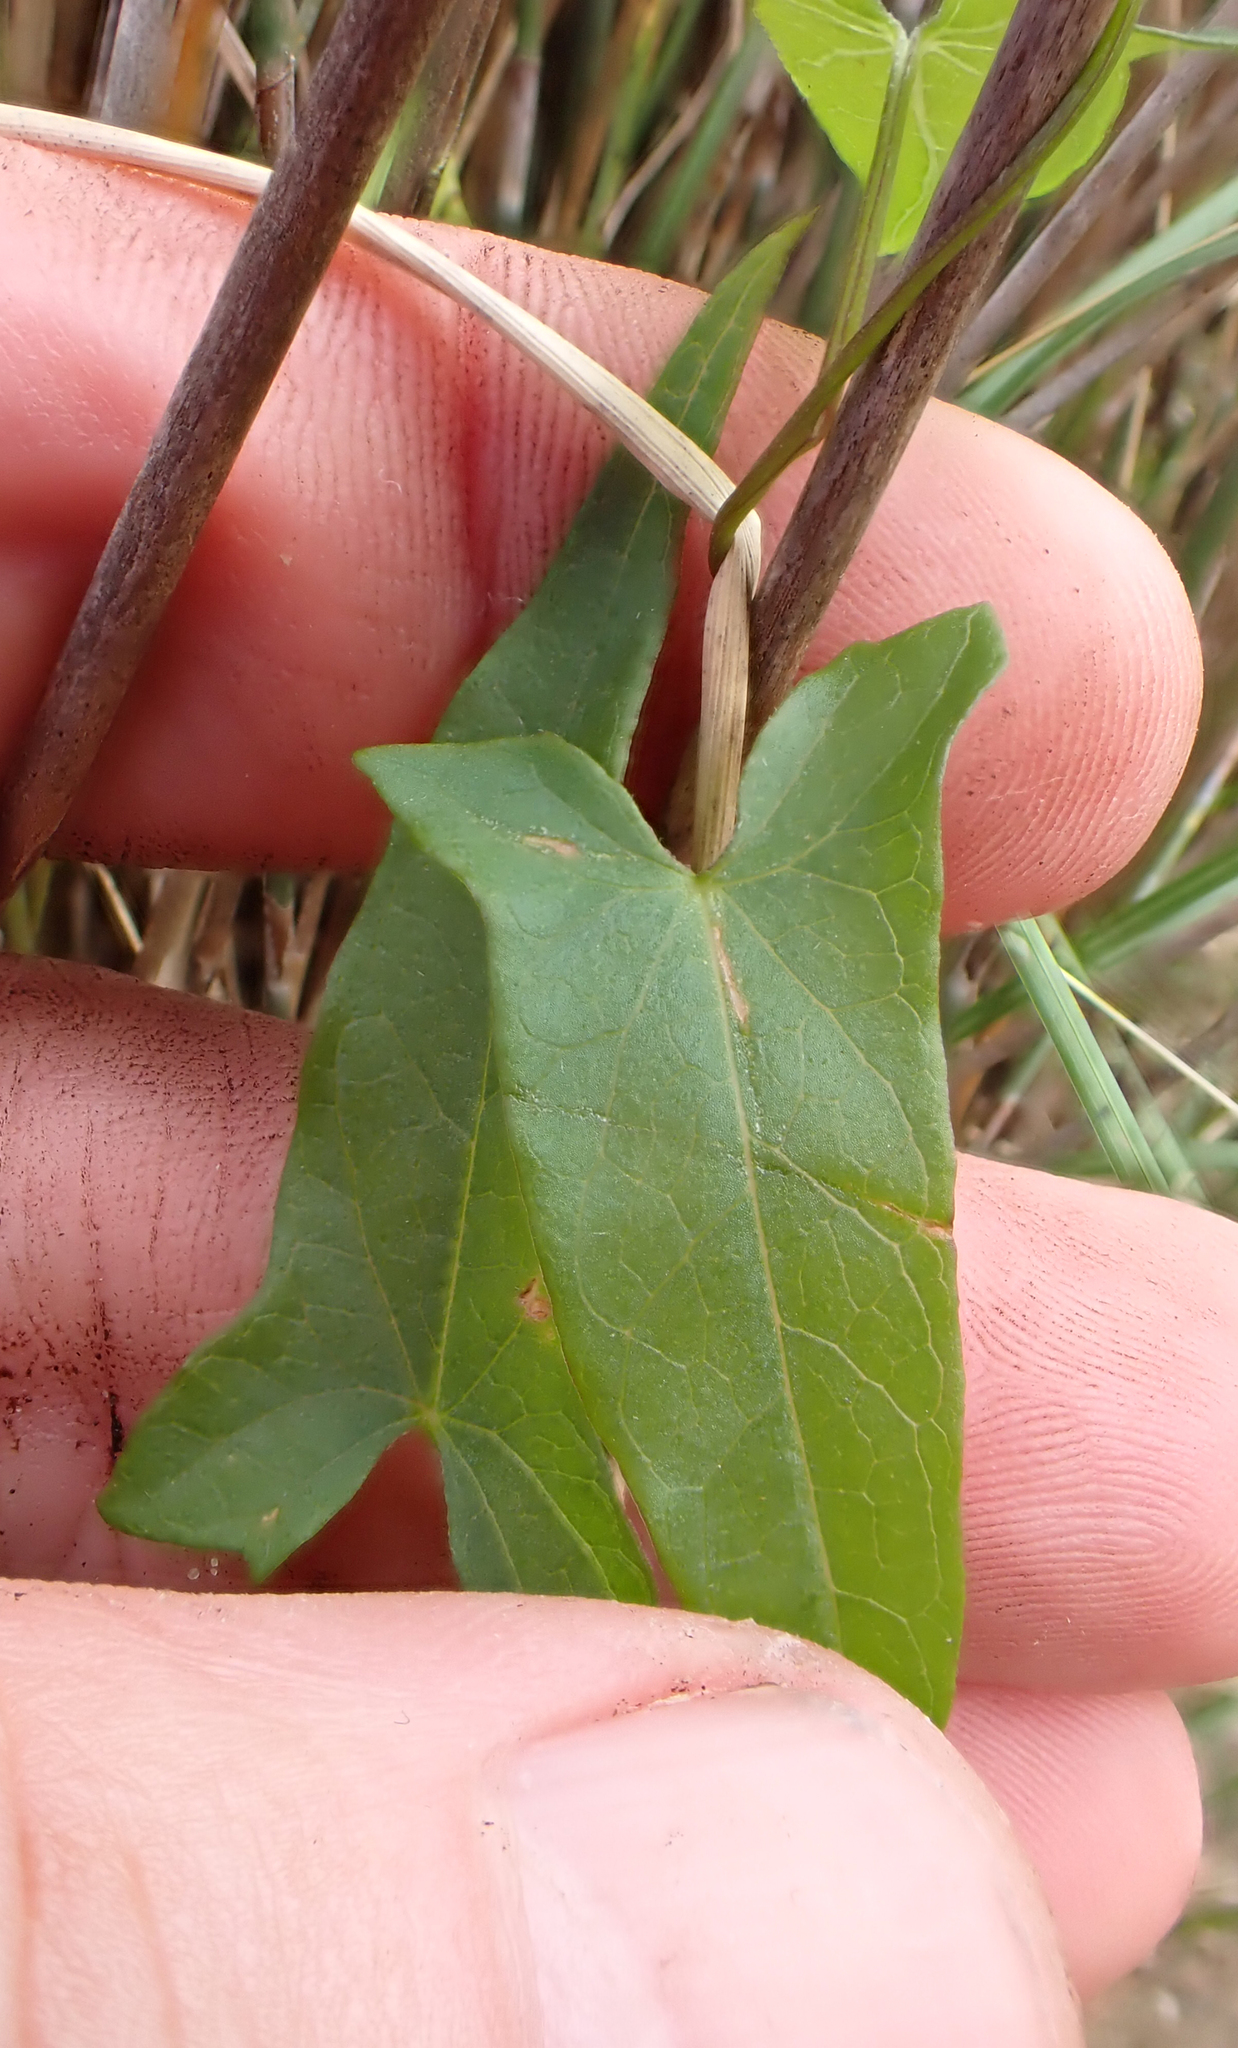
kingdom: Plantae
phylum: Tracheophyta
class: Magnoliopsida
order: Solanales
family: Convolvulaceae
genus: Calystegia
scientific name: Calystegia
